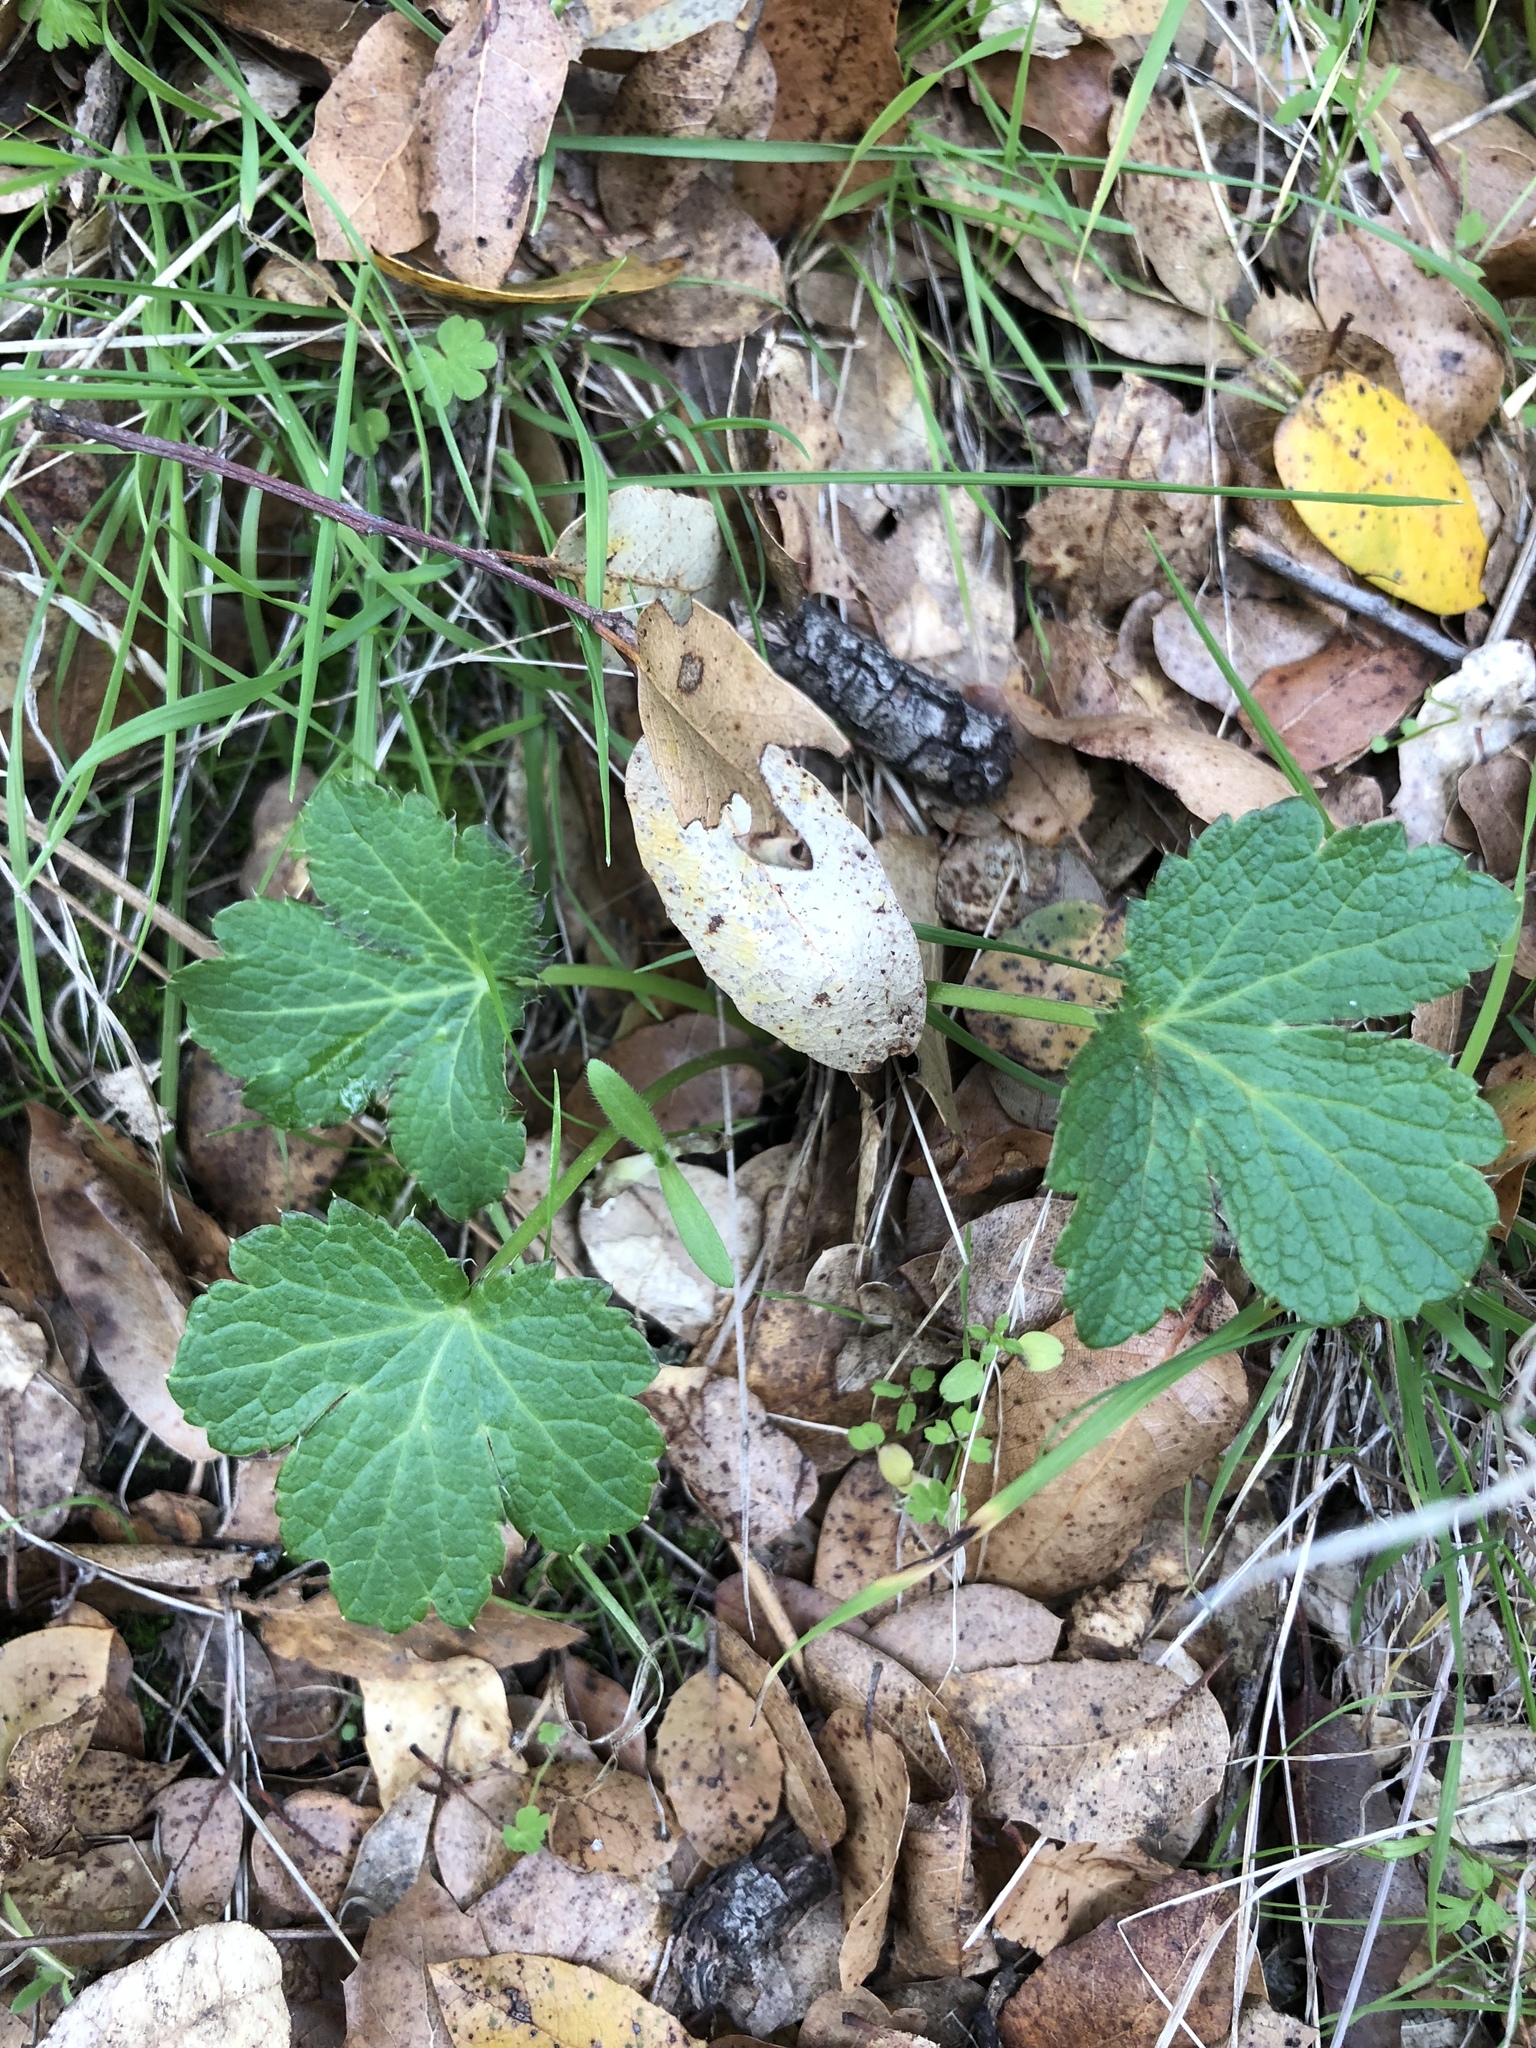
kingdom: Plantae
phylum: Tracheophyta
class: Magnoliopsida
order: Apiales
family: Apiaceae
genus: Sanicula
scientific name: Sanicula crassicaulis
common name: Western snakeroot
